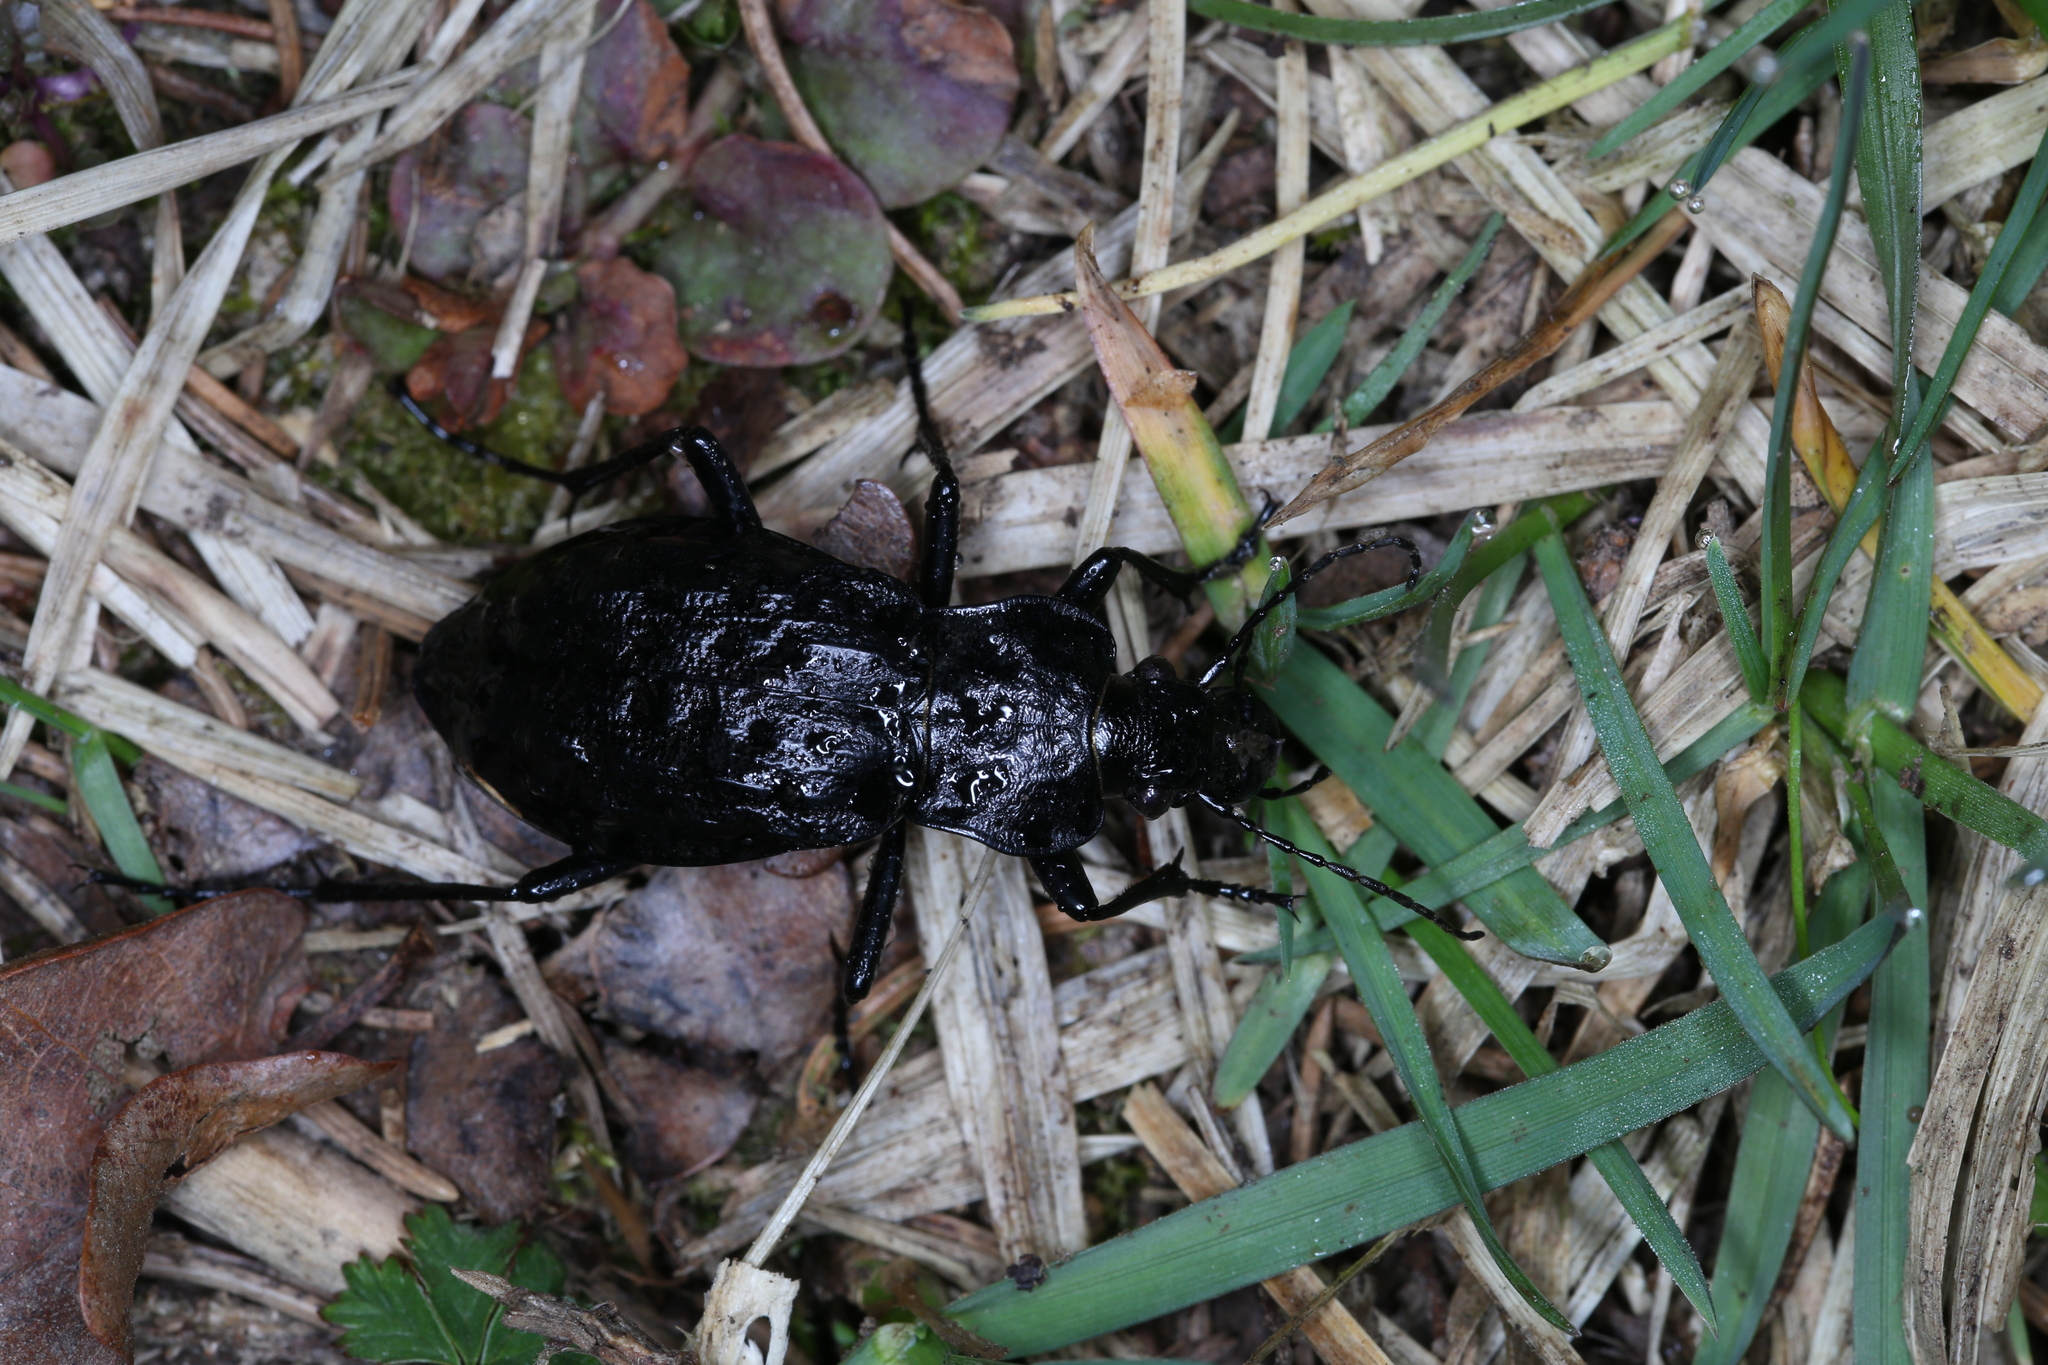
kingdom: Animalia
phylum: Arthropoda
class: Insecta
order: Coleoptera
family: Carabidae
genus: Carabus
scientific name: Carabus nodulosus
